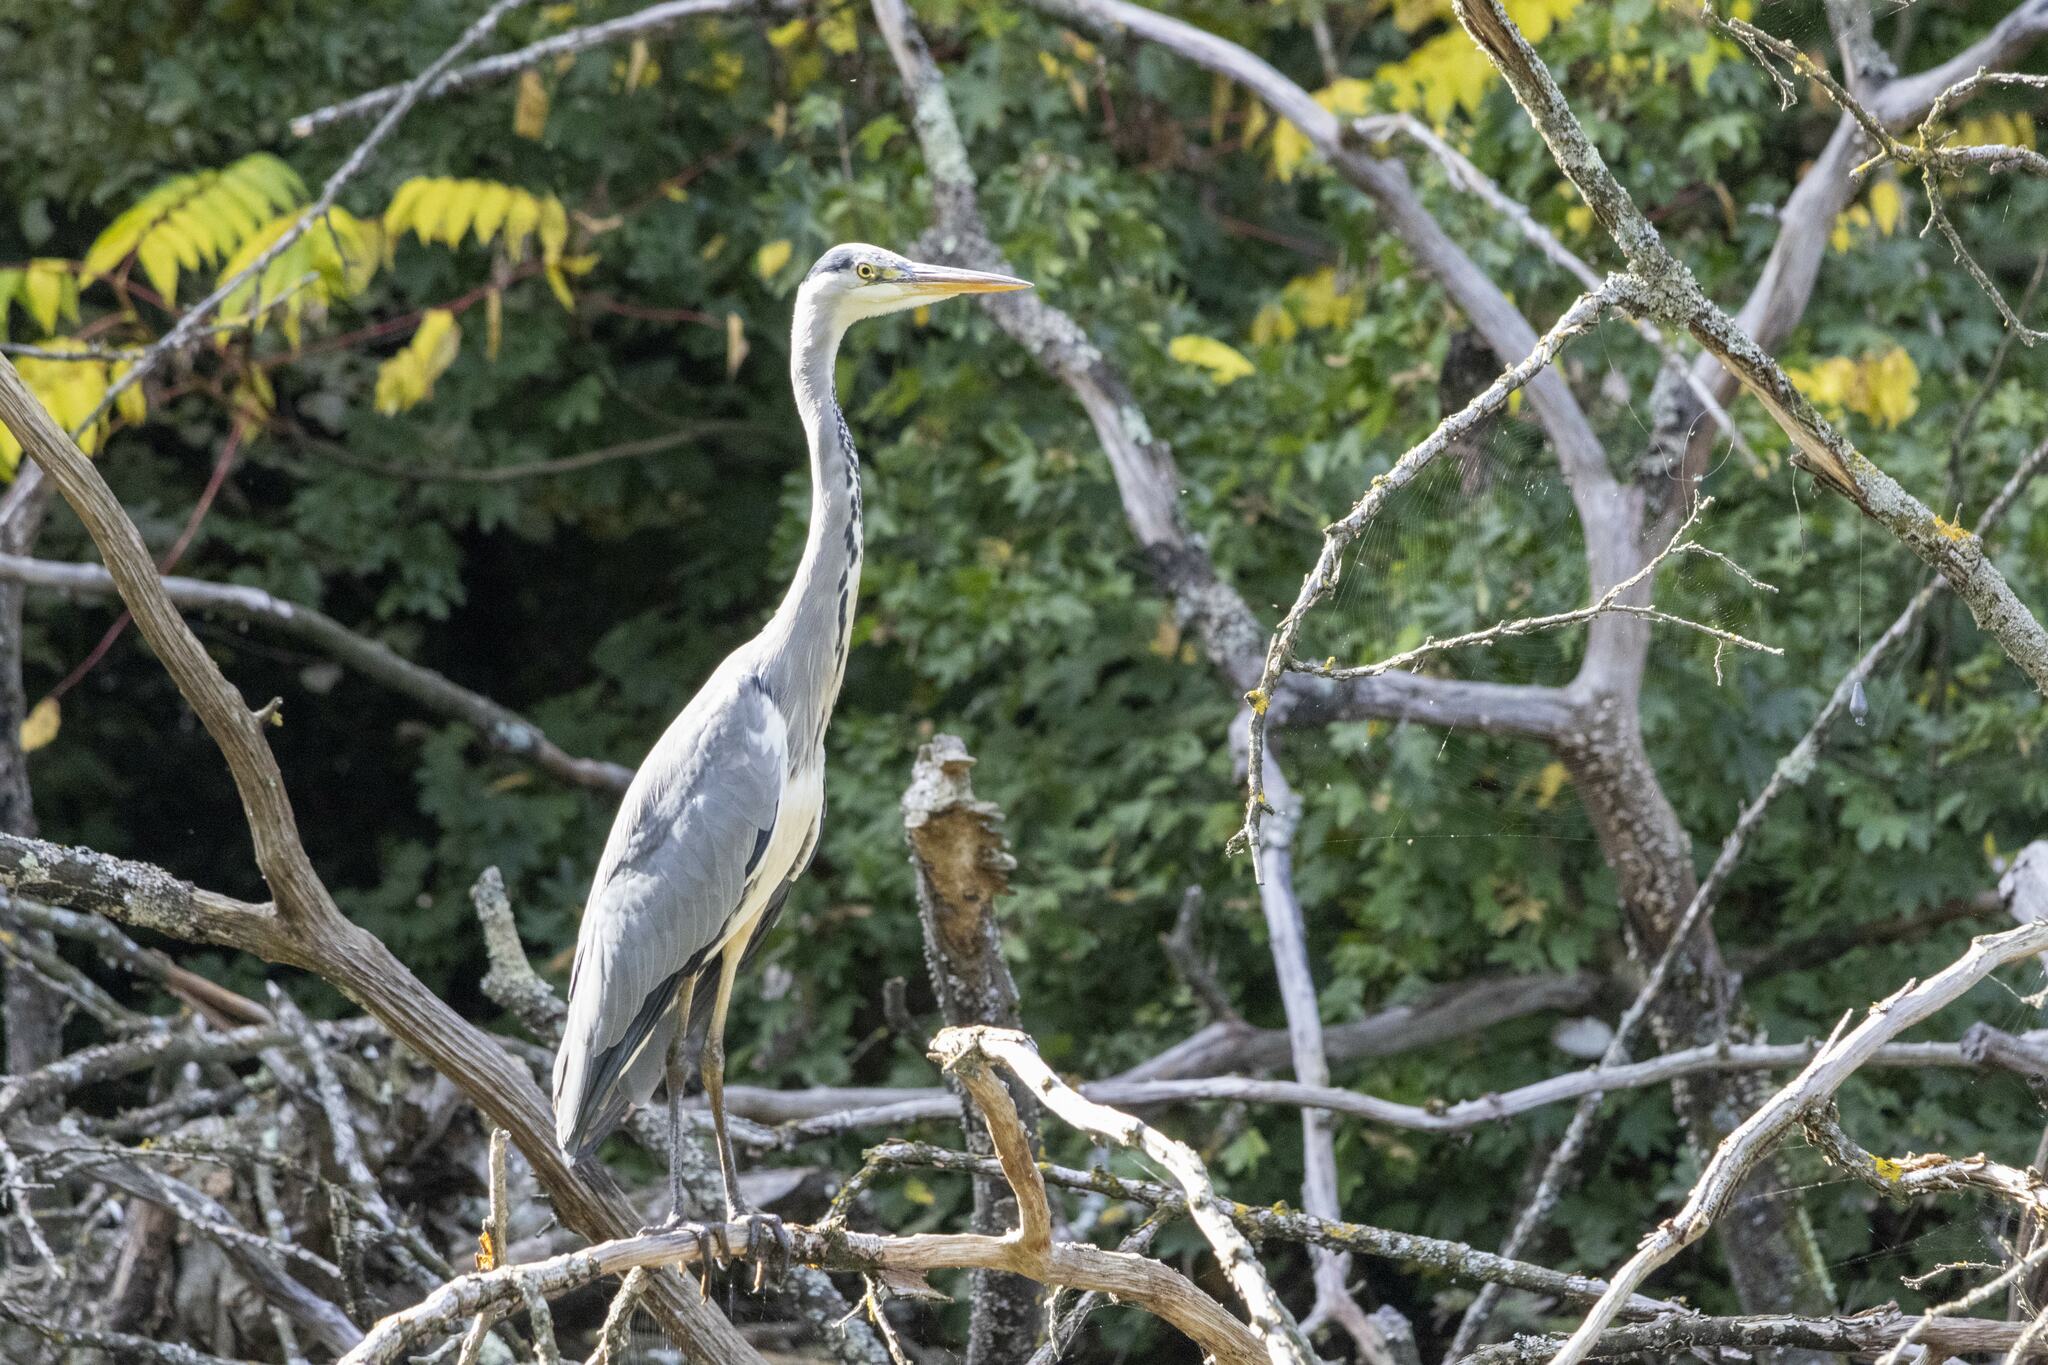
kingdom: Animalia
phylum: Chordata
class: Aves
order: Pelecaniformes
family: Ardeidae
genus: Ardea
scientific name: Ardea cinerea
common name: Grey heron
